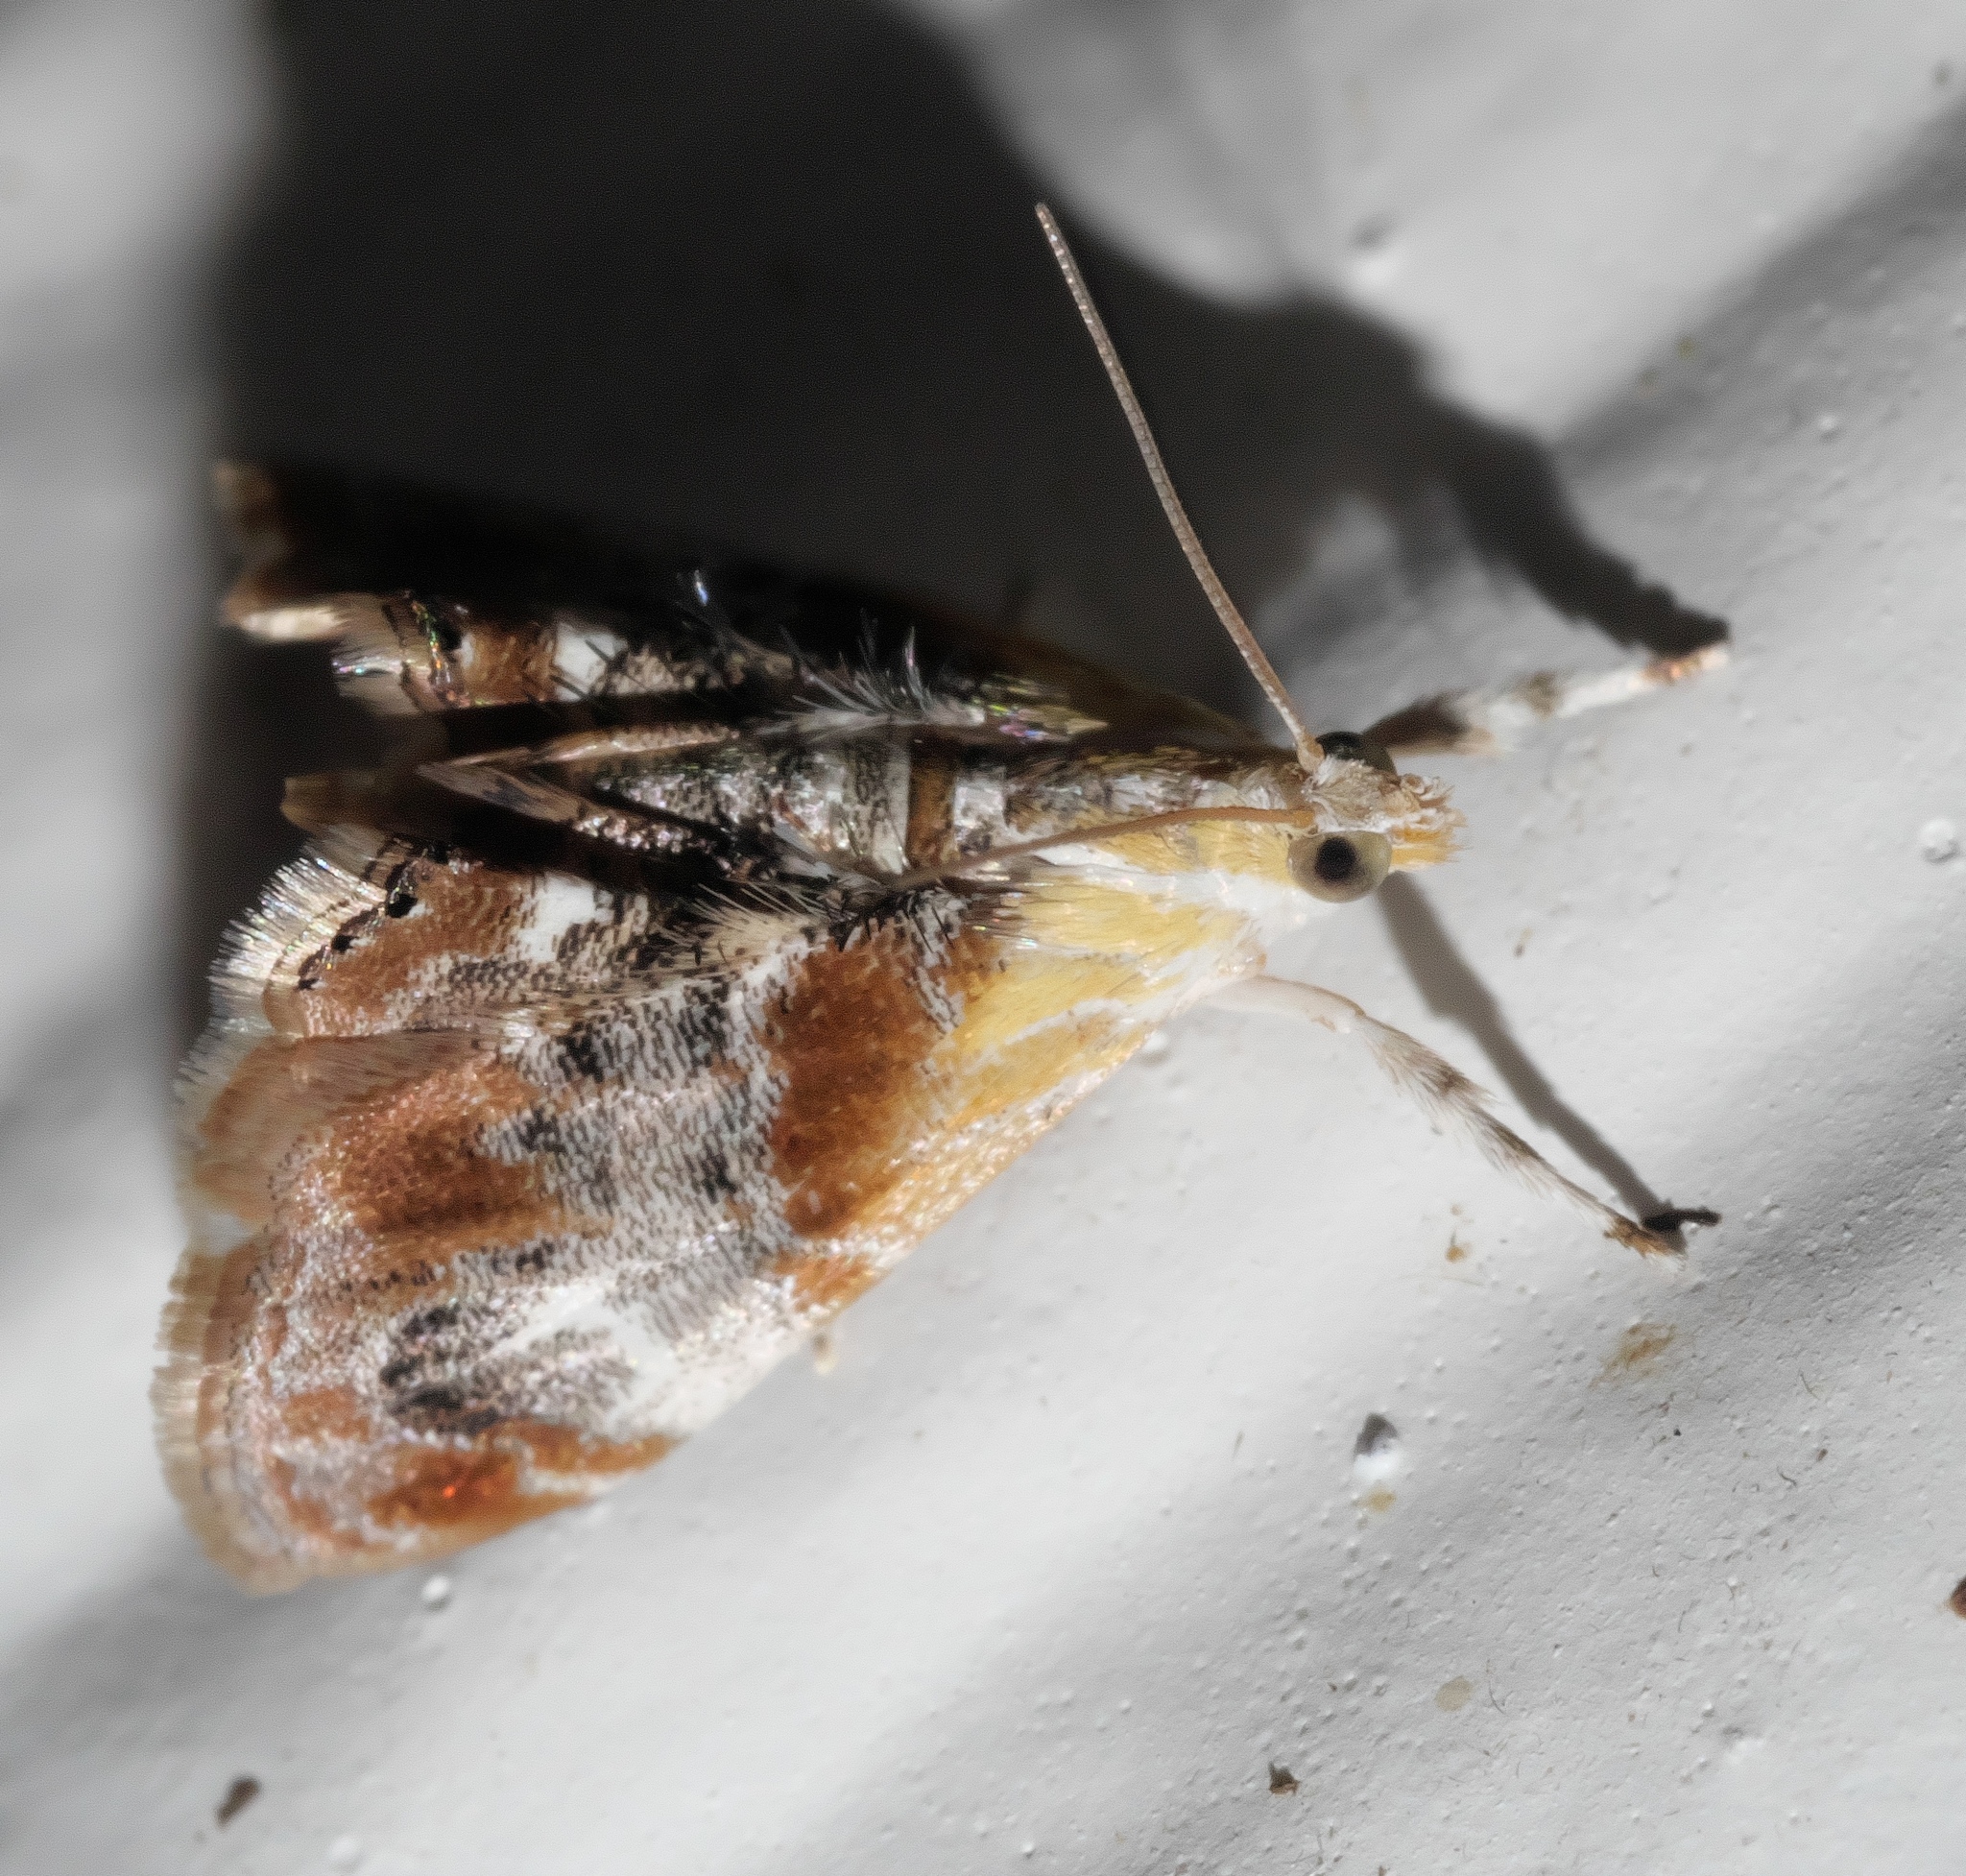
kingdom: Animalia
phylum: Arthropoda
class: Insecta
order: Lepidoptera
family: Crambidae
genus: Dicymolomia
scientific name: Dicymolomia julianalis
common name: Julia's dicymolomia moth
